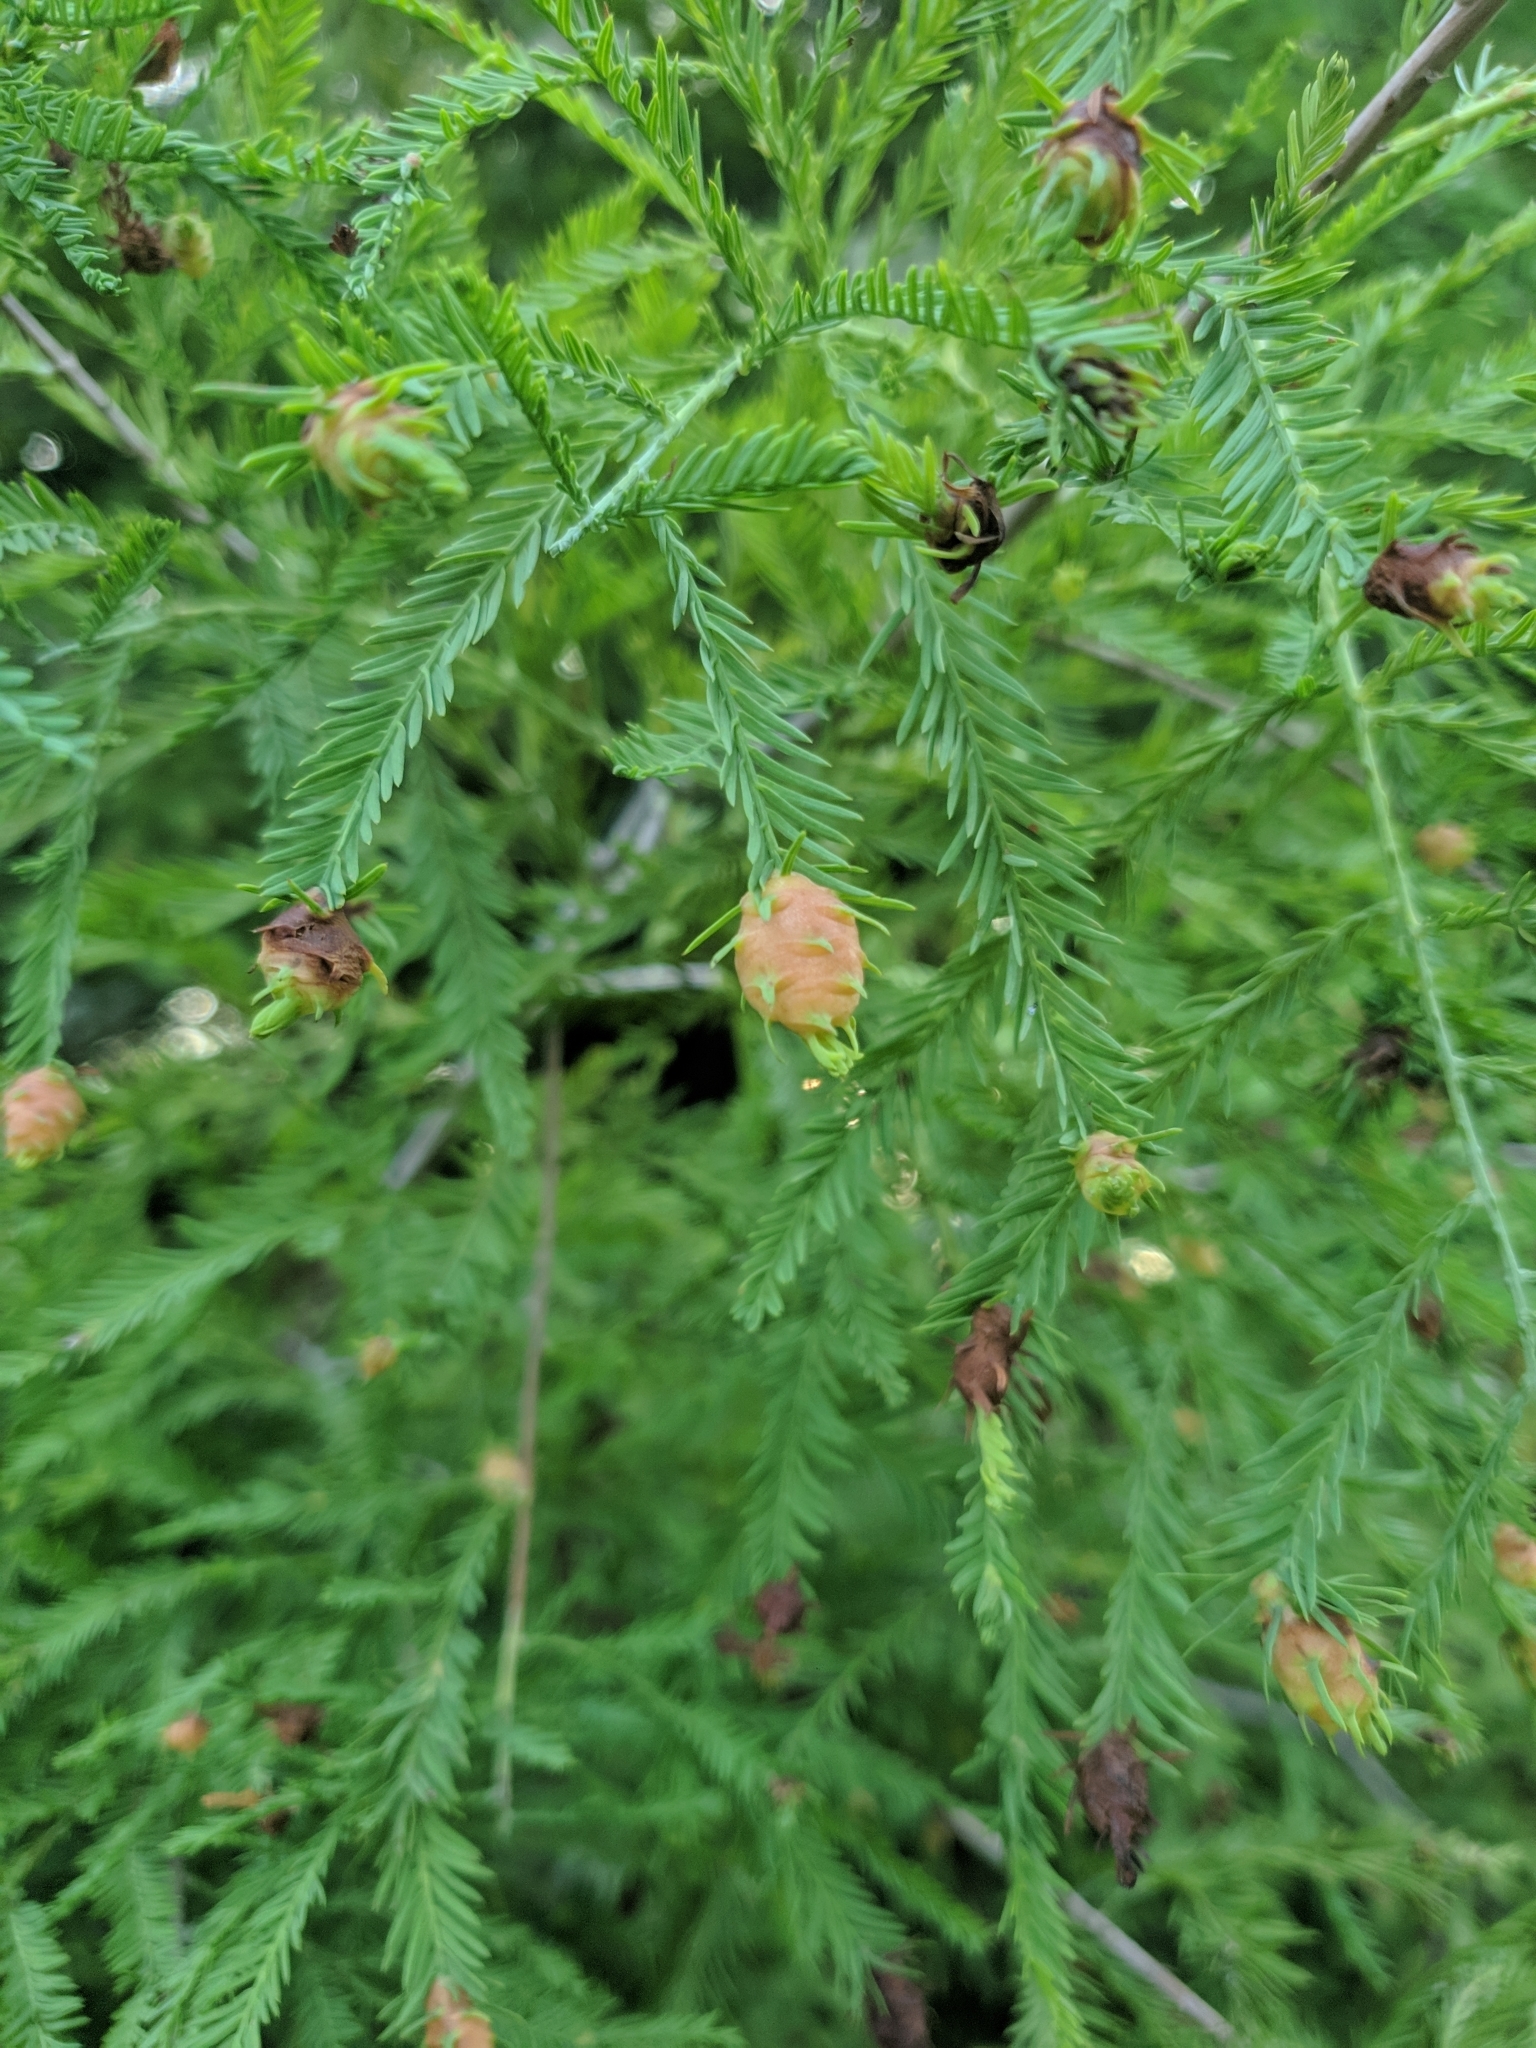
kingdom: Animalia
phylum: Arthropoda
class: Insecta
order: Diptera
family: Cecidomyiidae
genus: Taxodiomyia
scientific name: Taxodiomyia cupressiananassa
